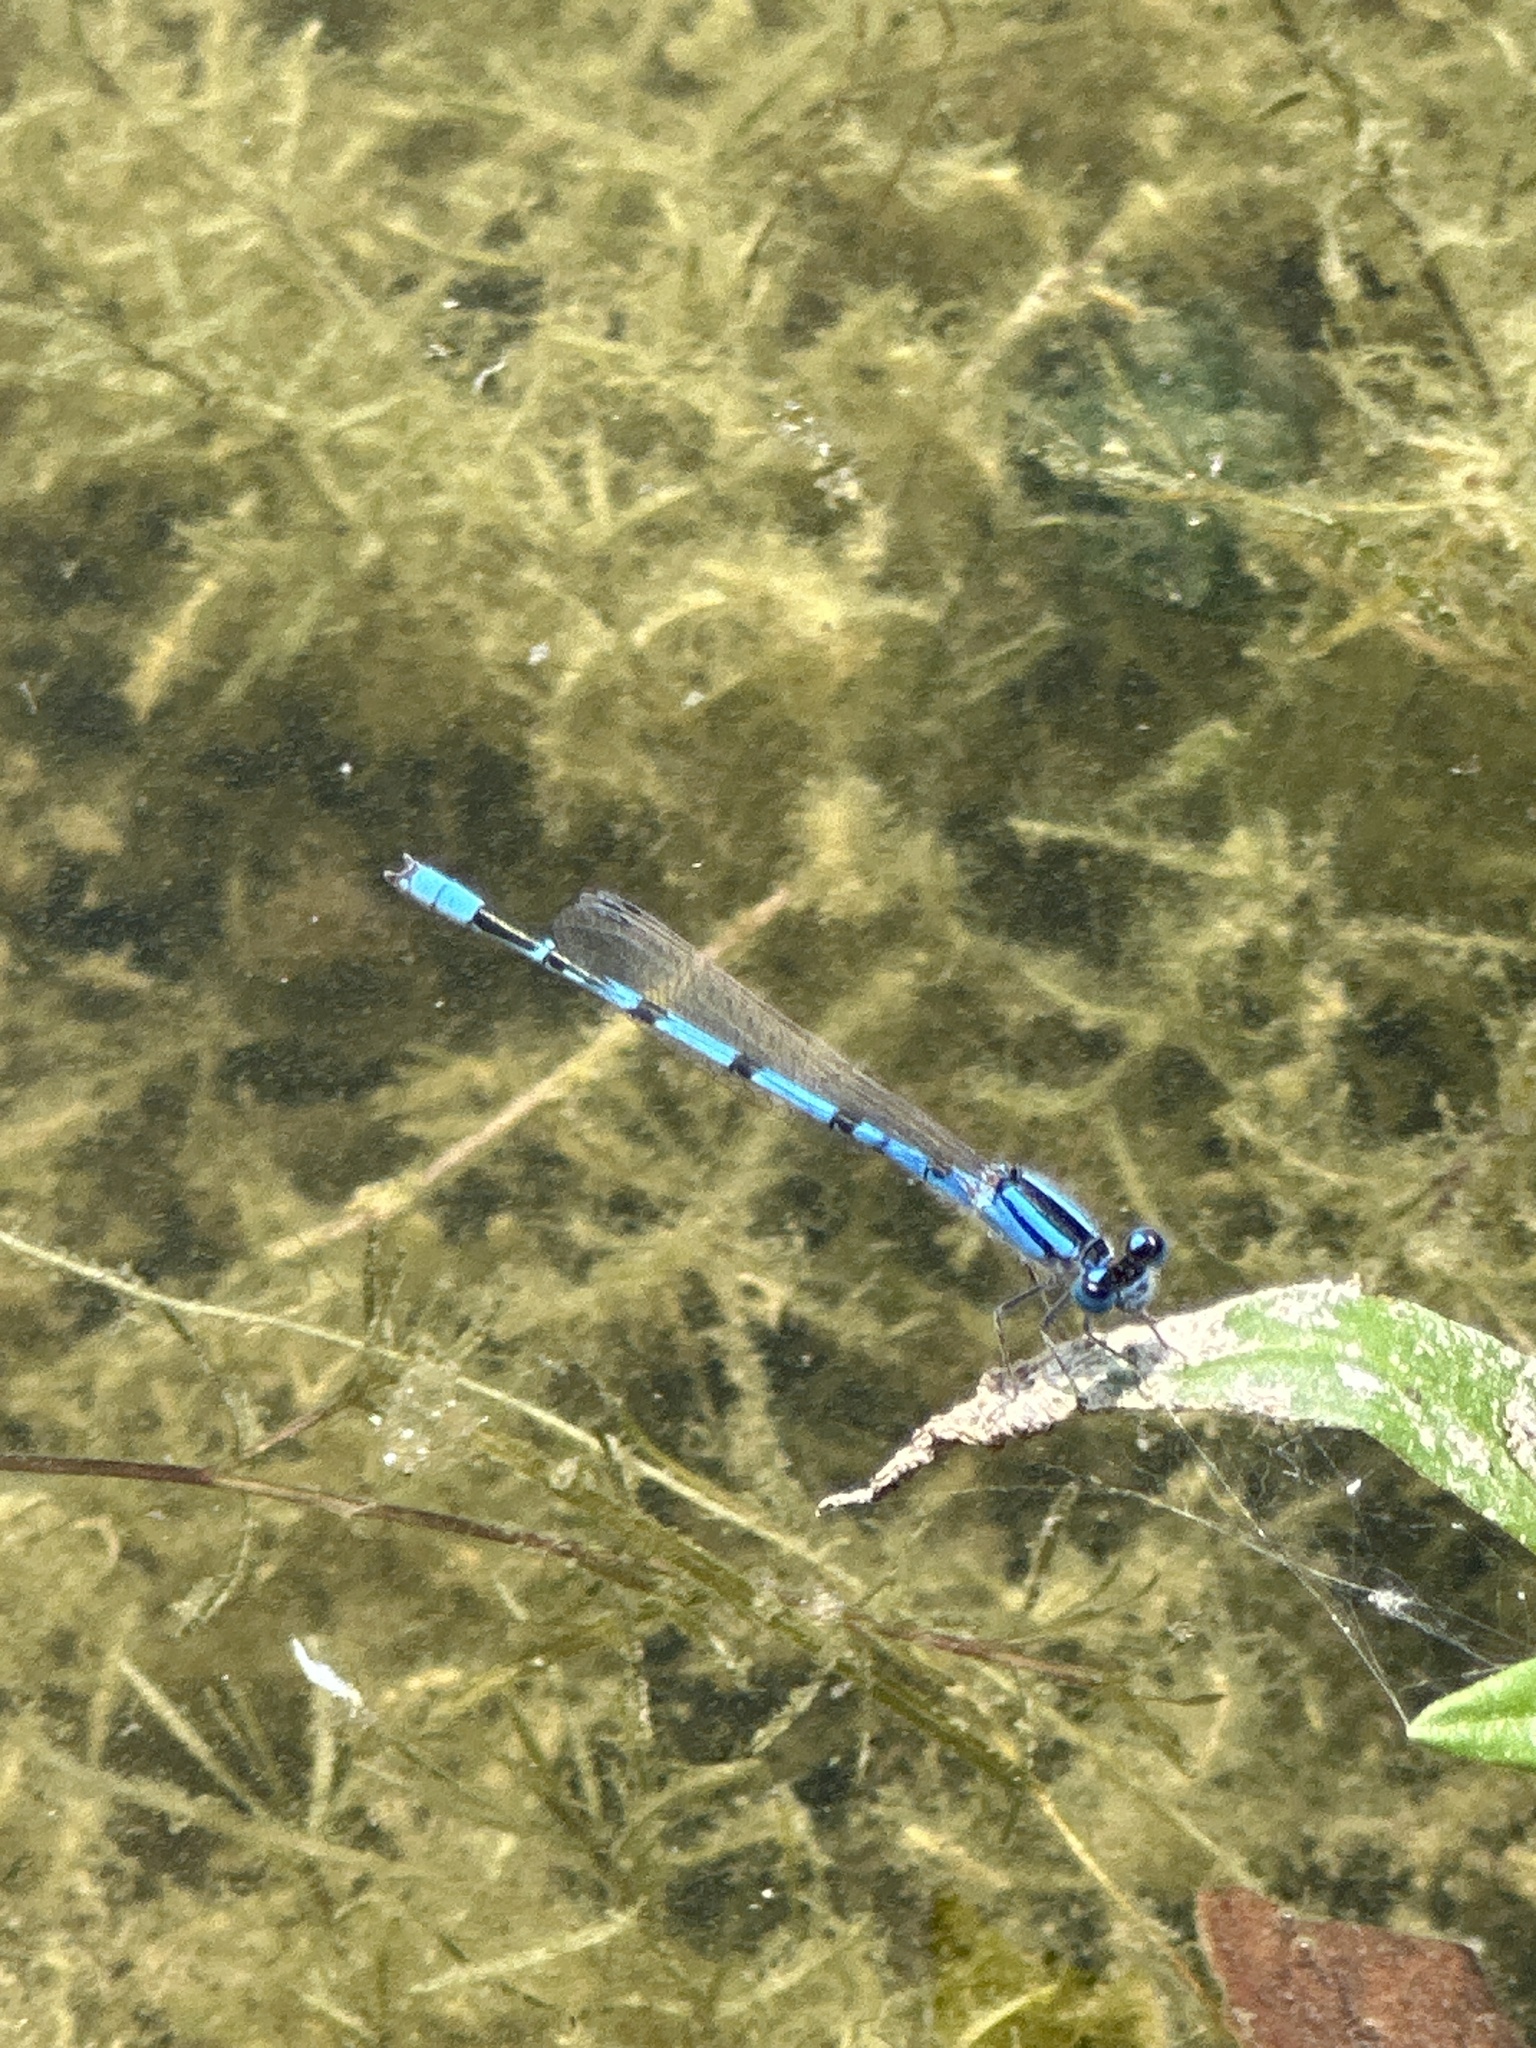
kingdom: Animalia
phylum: Arthropoda
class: Insecta
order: Odonata
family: Coenagrionidae
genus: Enallagma
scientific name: Enallagma civile
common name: Damselfly
